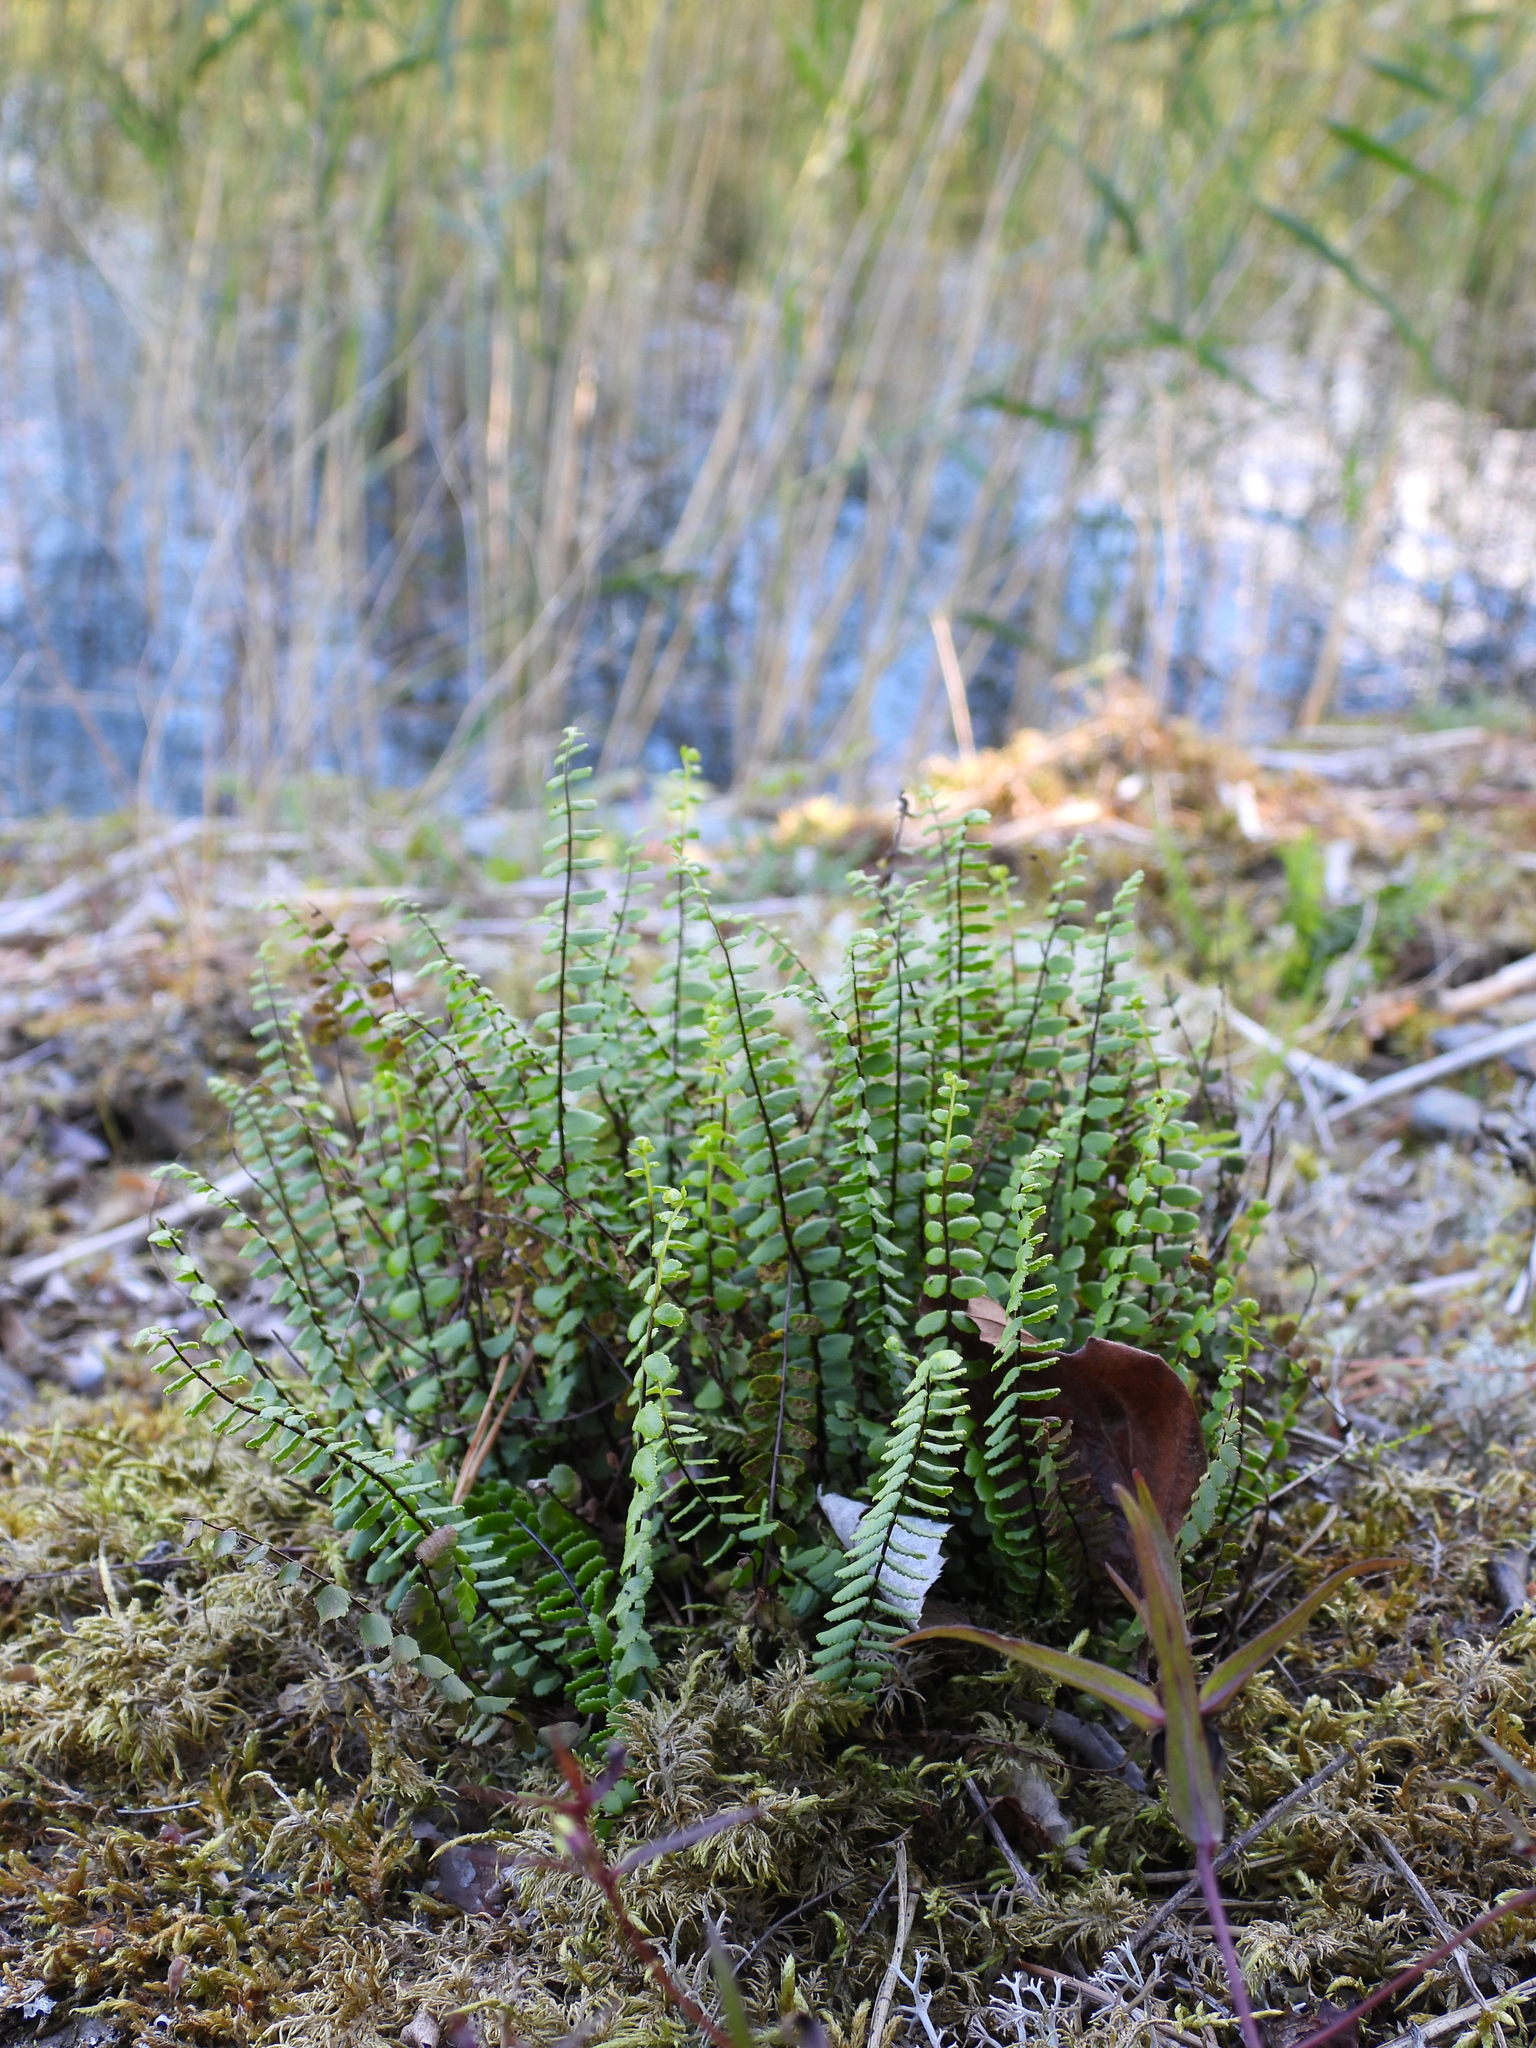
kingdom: Plantae
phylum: Tracheophyta
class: Polypodiopsida
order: Polypodiales
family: Aspleniaceae
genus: Asplenium
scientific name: Asplenium trichomanes
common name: Maidenhair spleenwort
